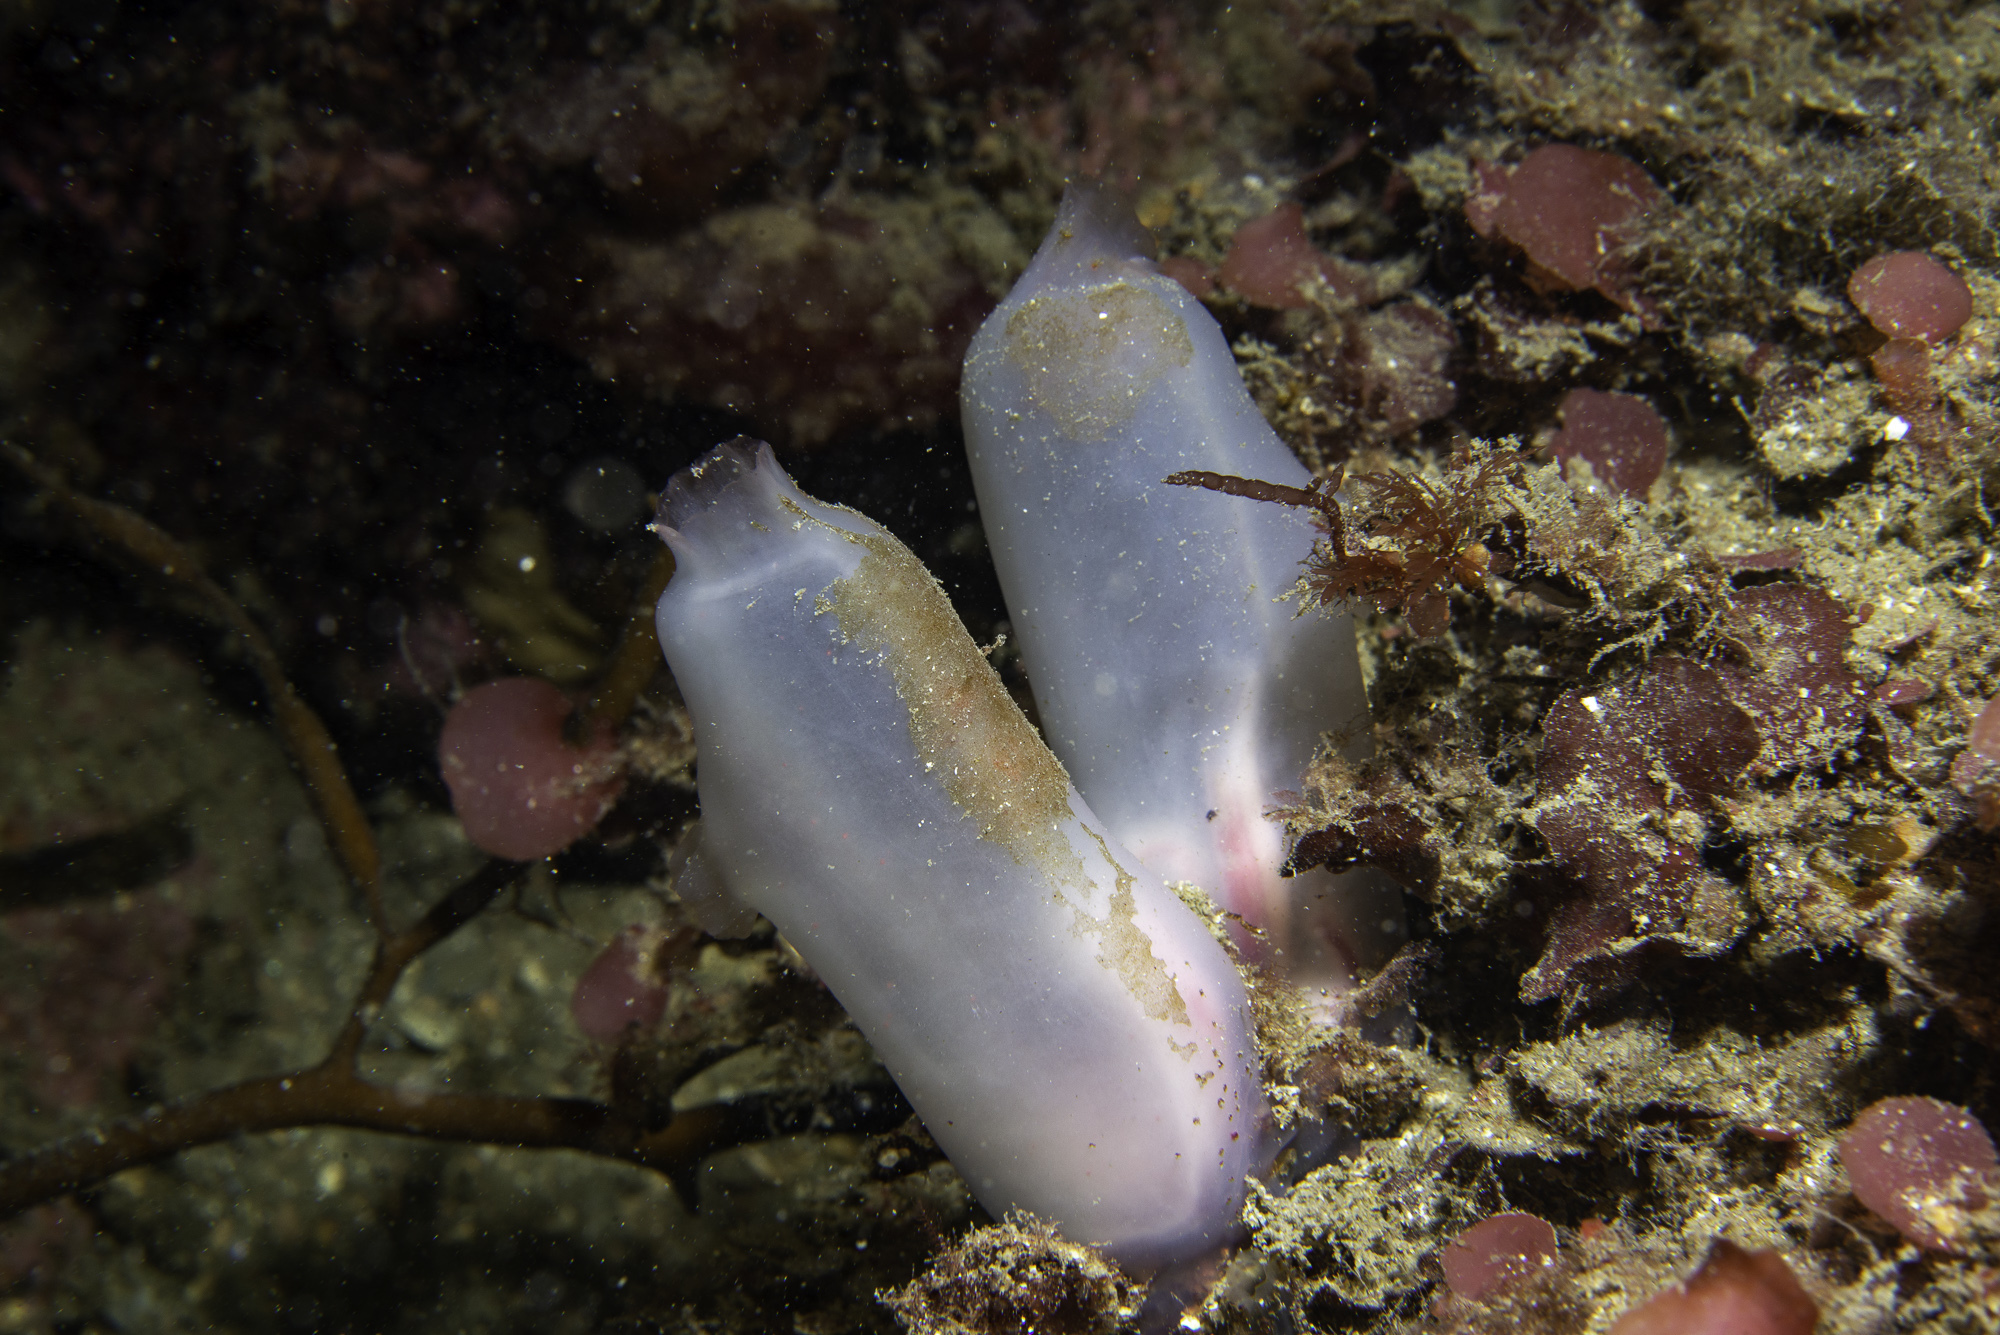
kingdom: Animalia
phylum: Chordata
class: Ascidiacea
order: Phlebobranchia
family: Ascidiidae
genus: Ascidia
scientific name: Ascidia virginea
